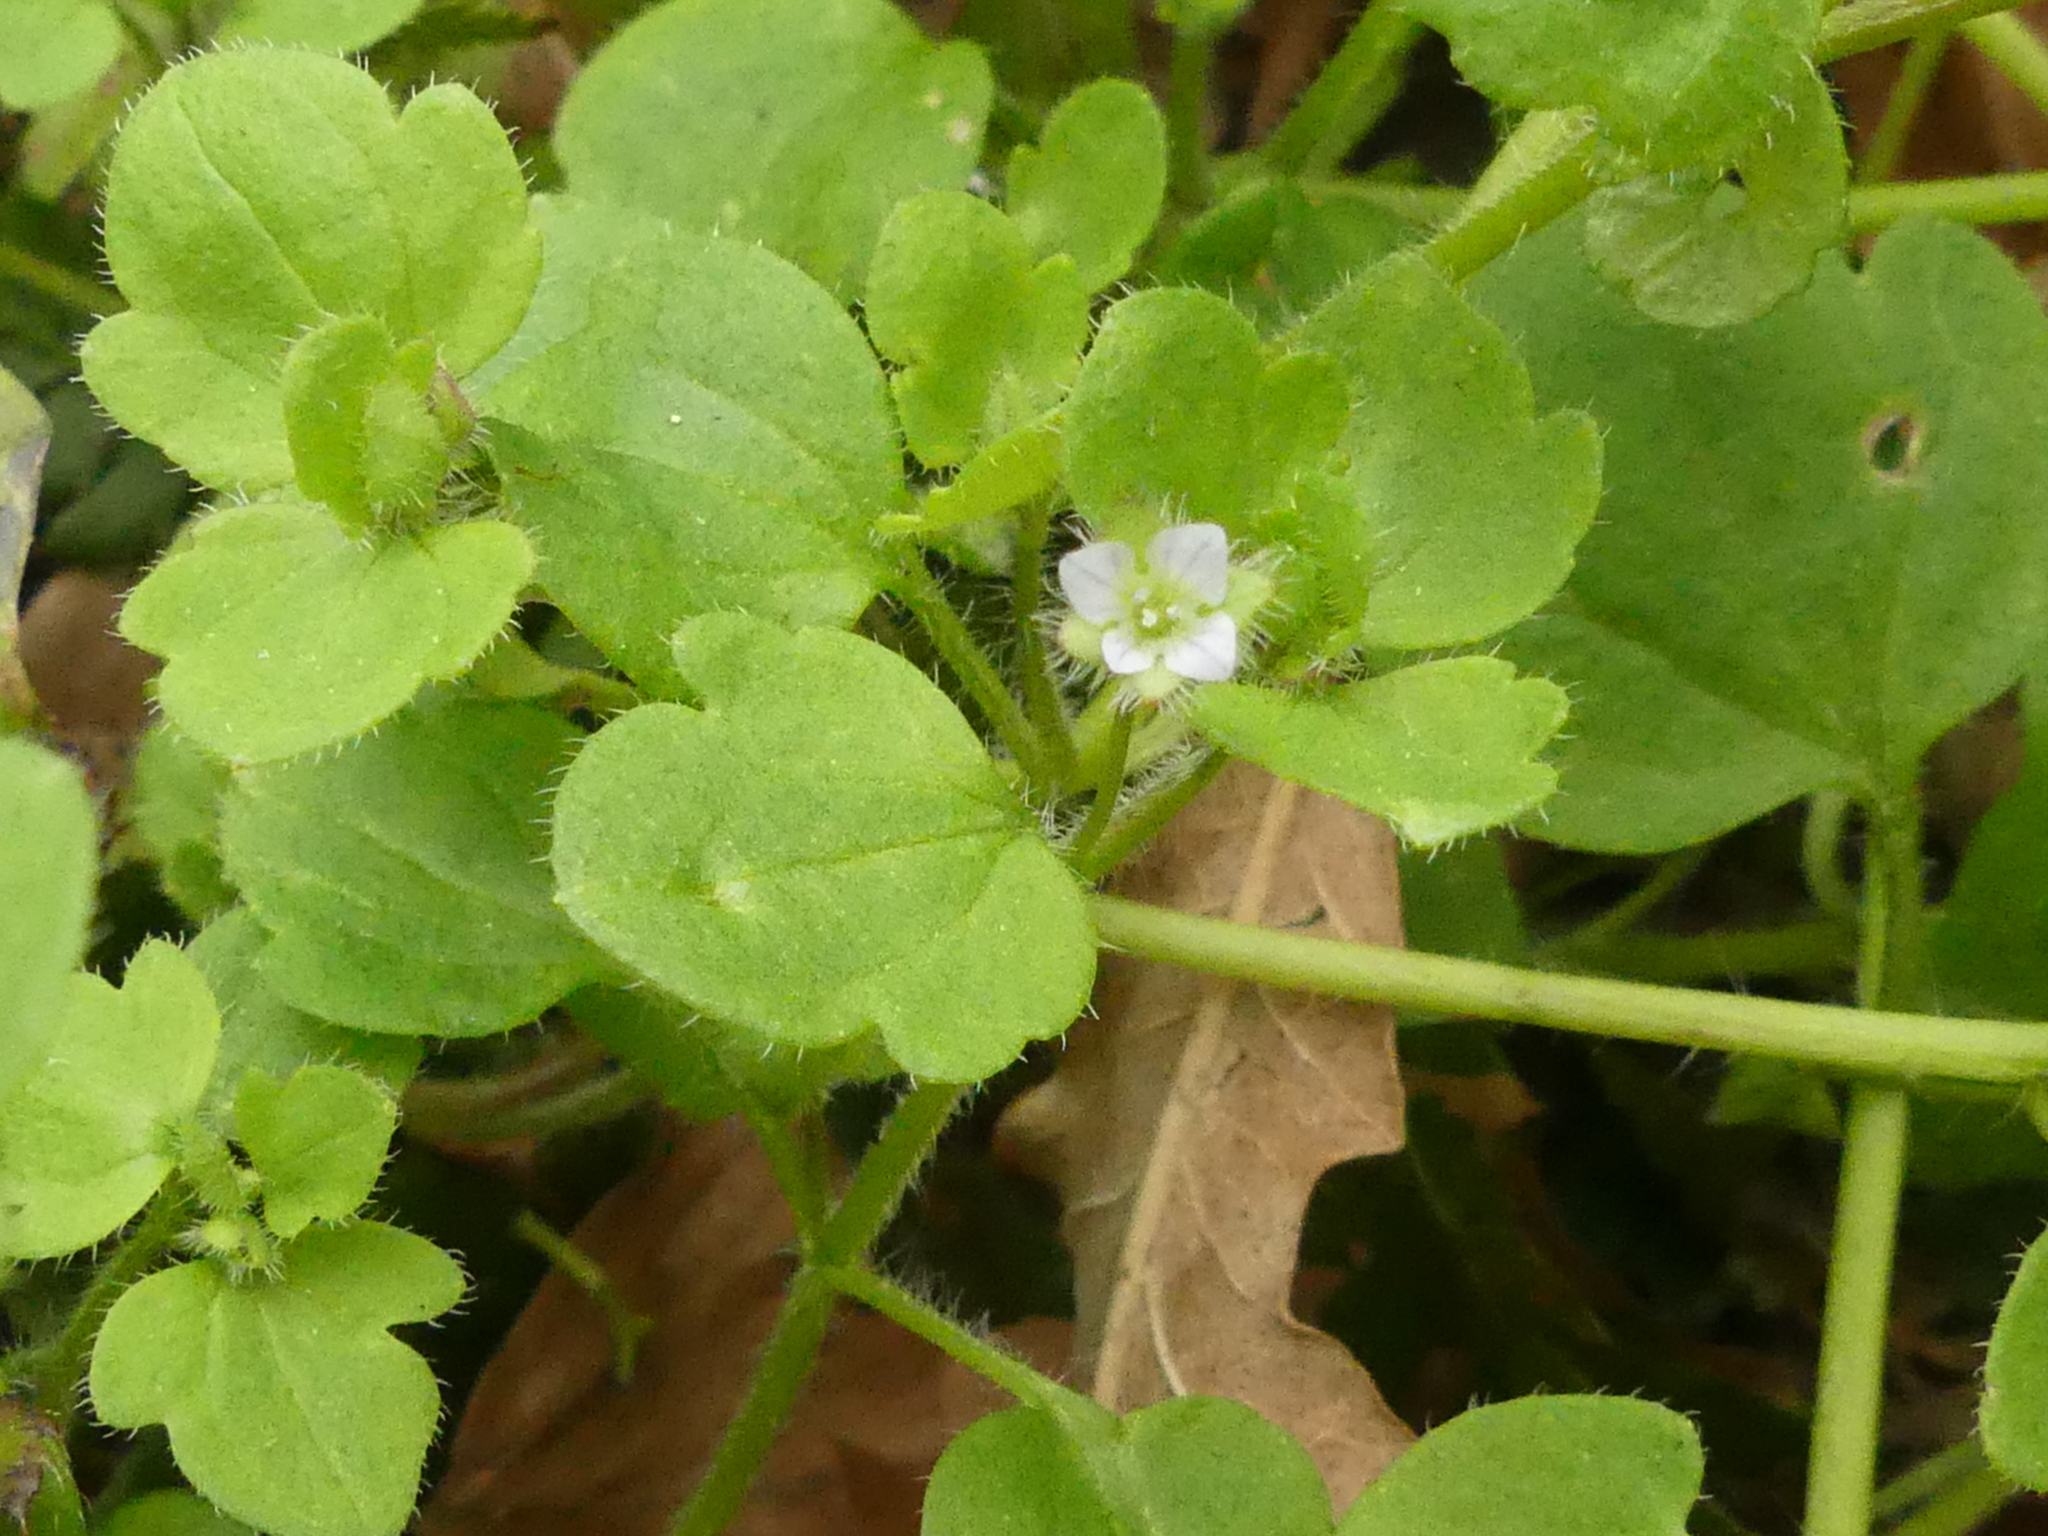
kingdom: Plantae
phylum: Tracheophyta
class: Magnoliopsida
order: Lamiales
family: Plantaginaceae
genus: Veronica
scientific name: Veronica sublobata
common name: False ivy-leaved speedwell
